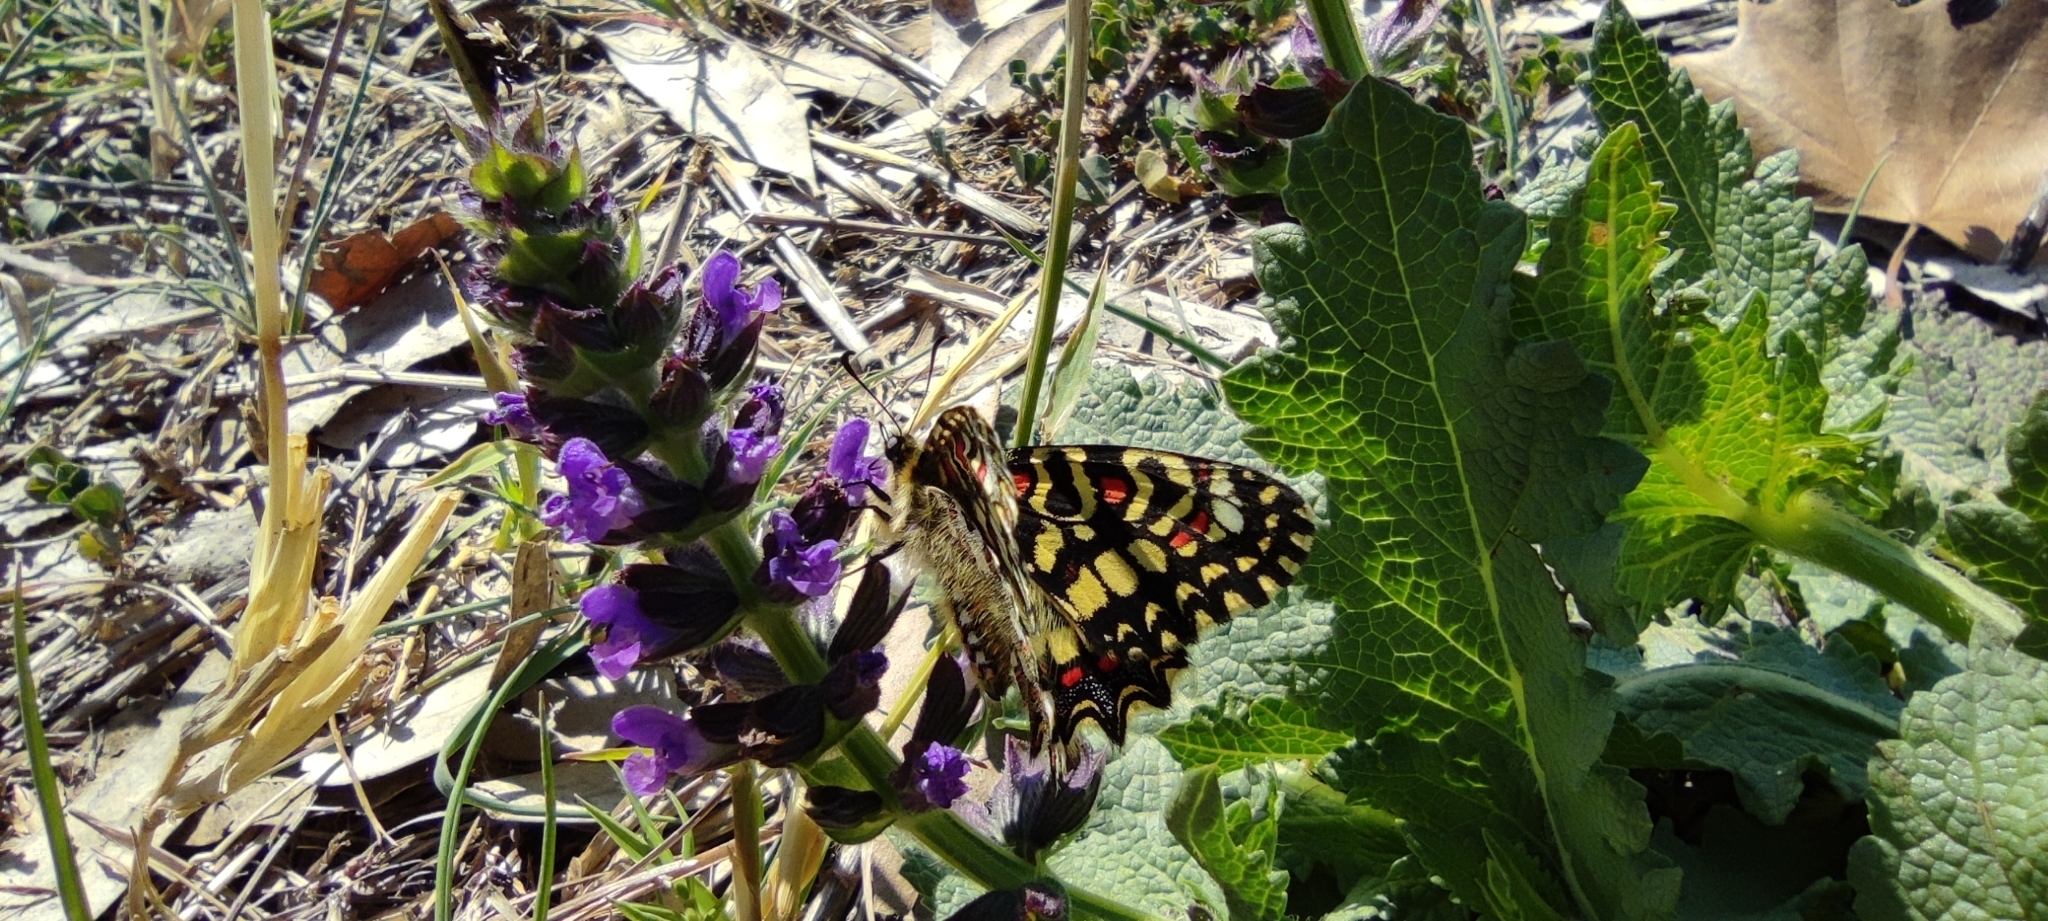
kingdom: Animalia
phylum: Arthropoda
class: Insecta
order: Lepidoptera
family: Papilionidae
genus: Zerynthia
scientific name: Zerynthia rumina
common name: Spanish festoon
